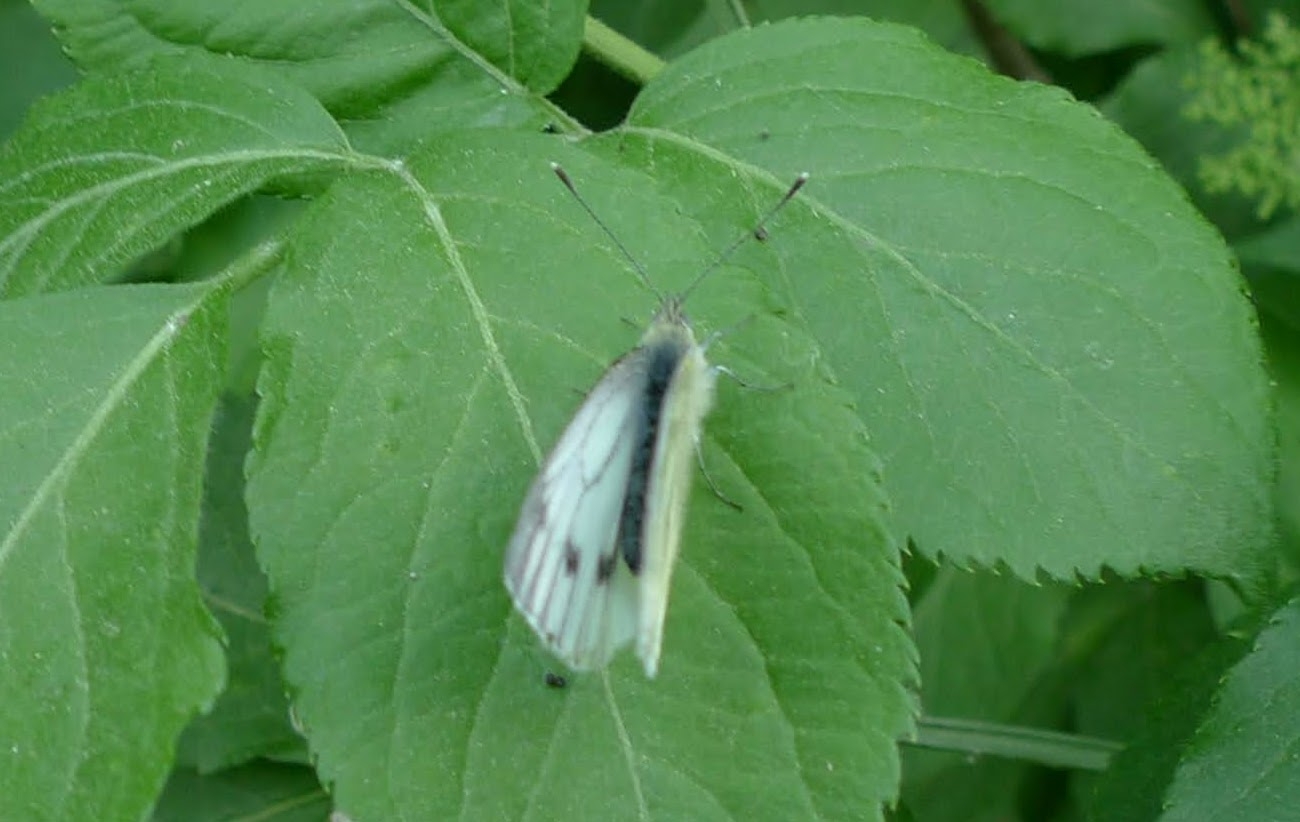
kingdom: Animalia
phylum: Arthropoda
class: Insecta
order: Lepidoptera
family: Pieridae
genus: Pieris
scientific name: Pieris napi
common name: Green-veined white
